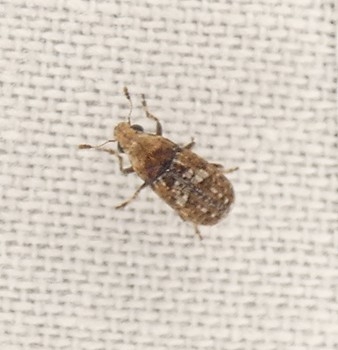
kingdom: Animalia
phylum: Arthropoda
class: Insecta
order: Coleoptera
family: Anthribidae
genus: Euparius
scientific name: Euparius marmoreus
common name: Marbled fungus weevil
